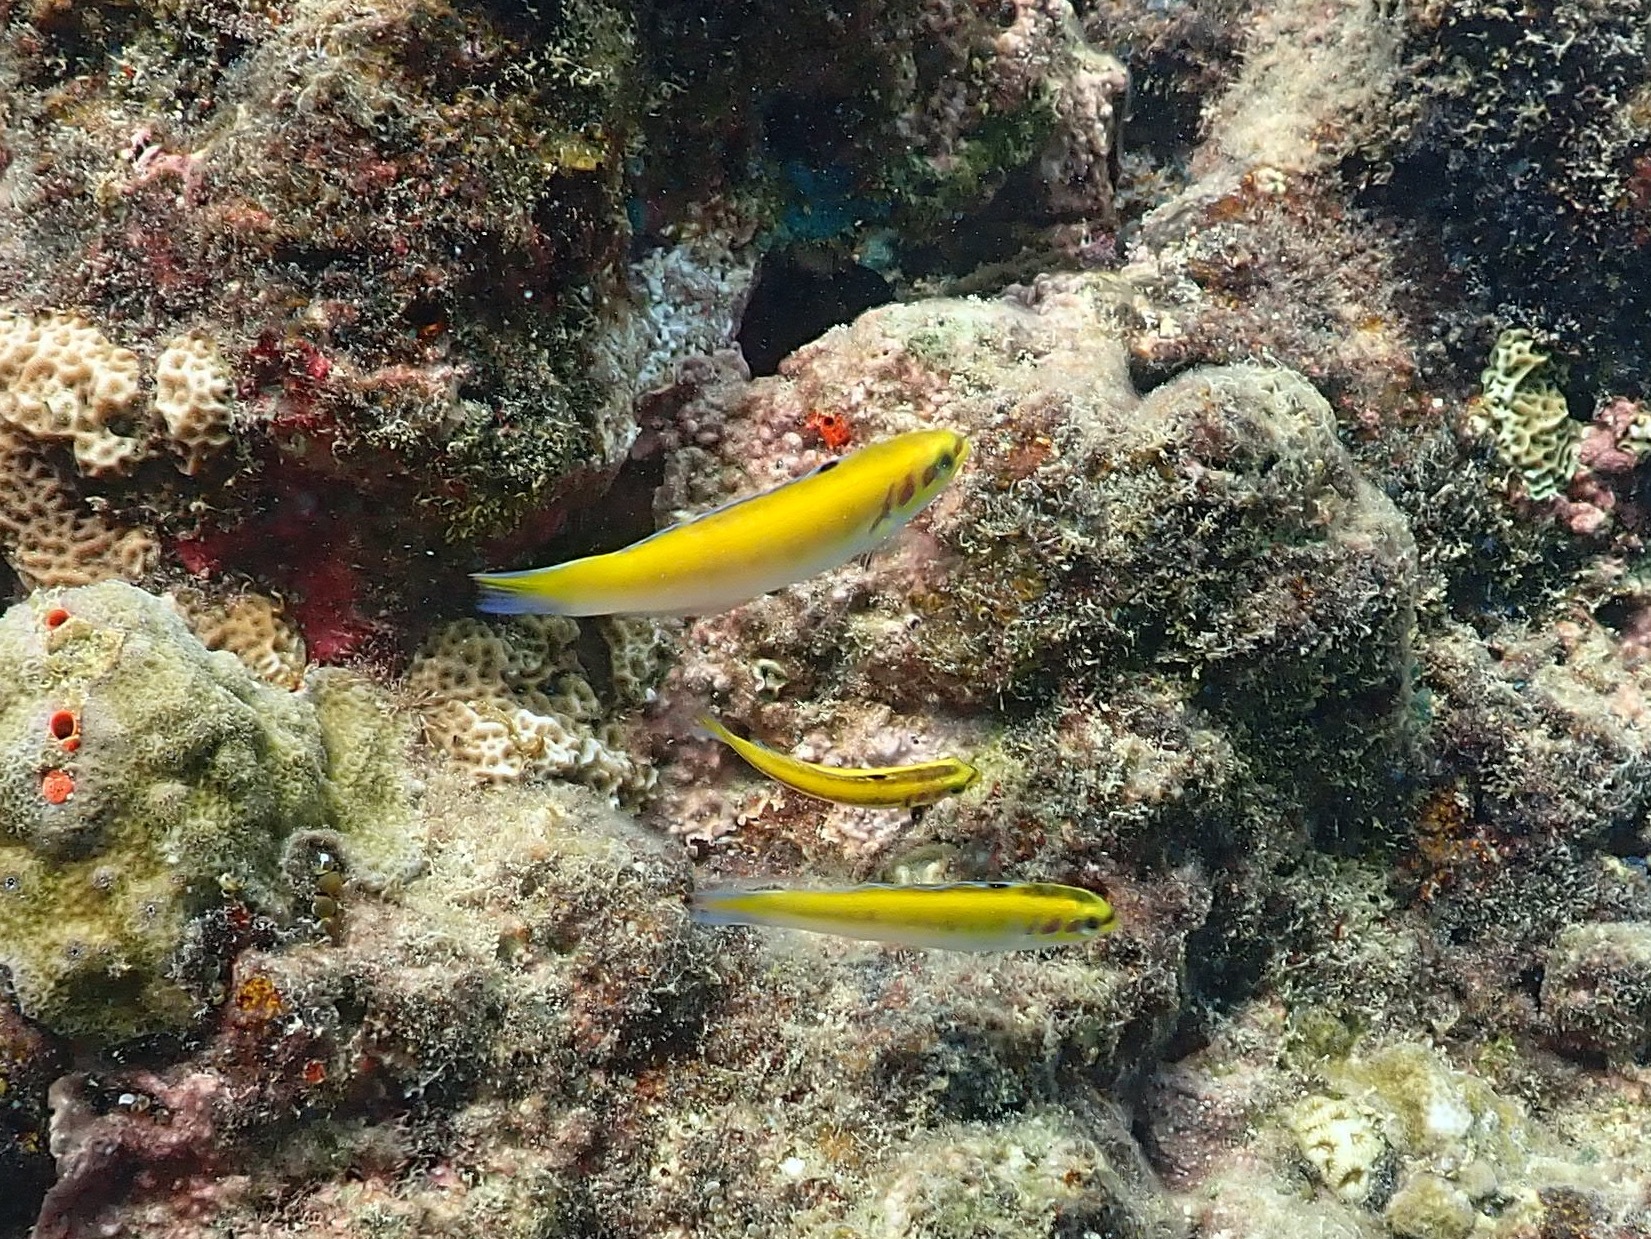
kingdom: Animalia
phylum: Chordata
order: Perciformes
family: Labridae
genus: Thalassoma
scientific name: Thalassoma bifasciatum
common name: Bluehead wrasse
